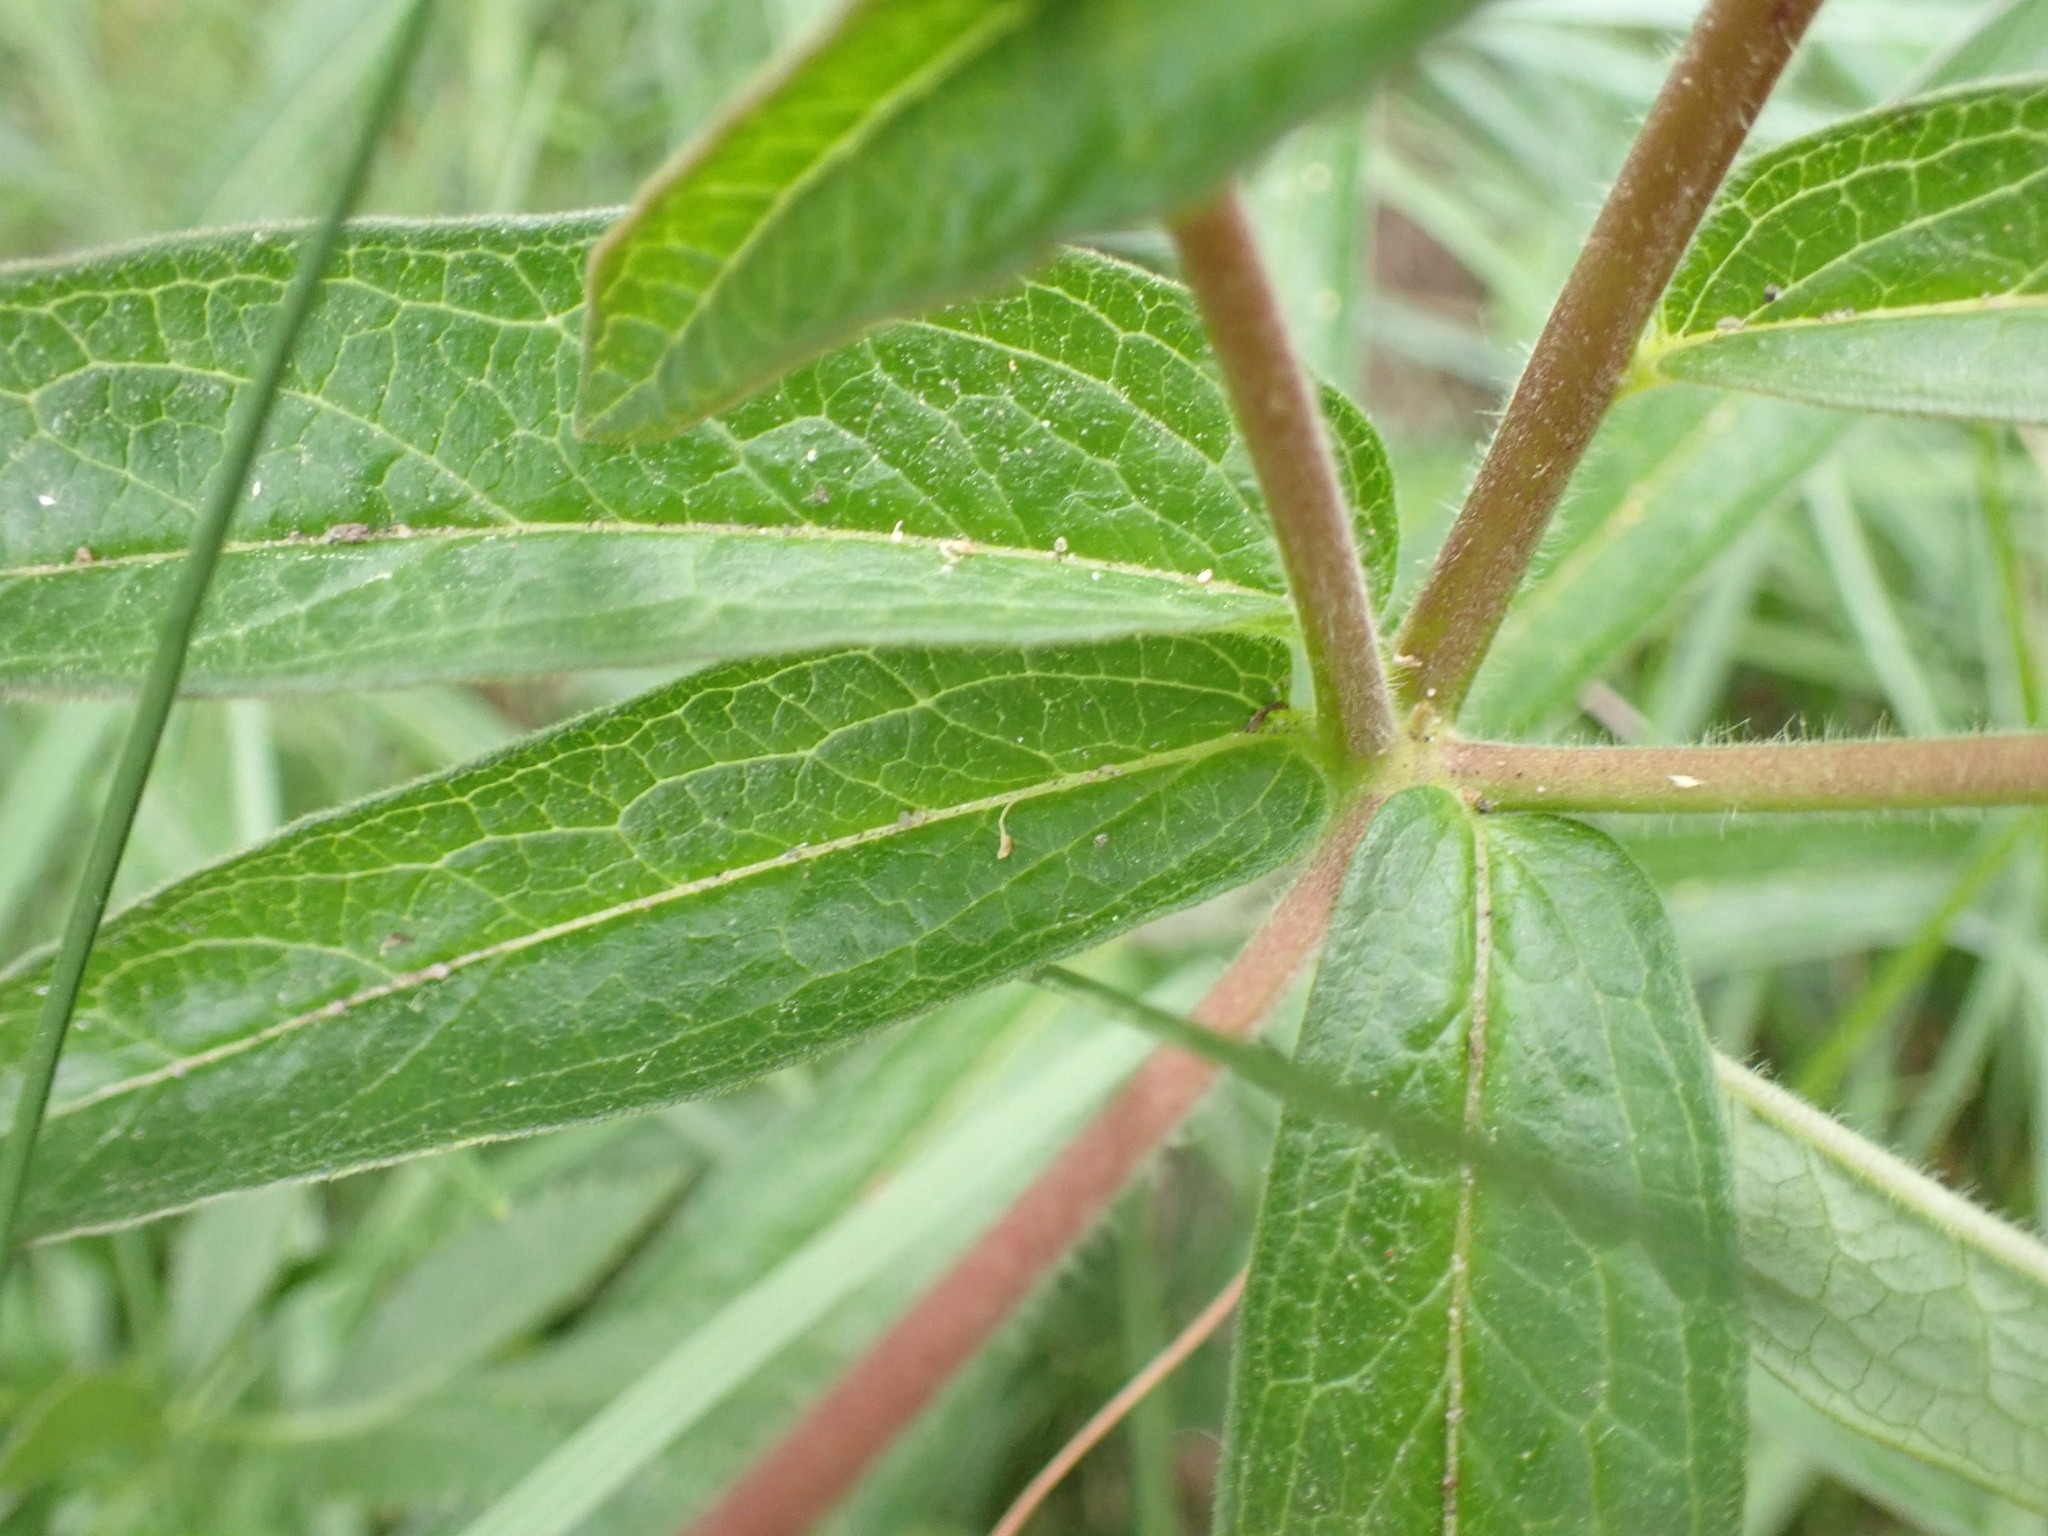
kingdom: Plantae
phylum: Tracheophyta
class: Magnoliopsida
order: Gentianales
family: Apocynaceae
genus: Asclepias
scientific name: Asclepias tuberosa
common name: Butterfly milkweed
